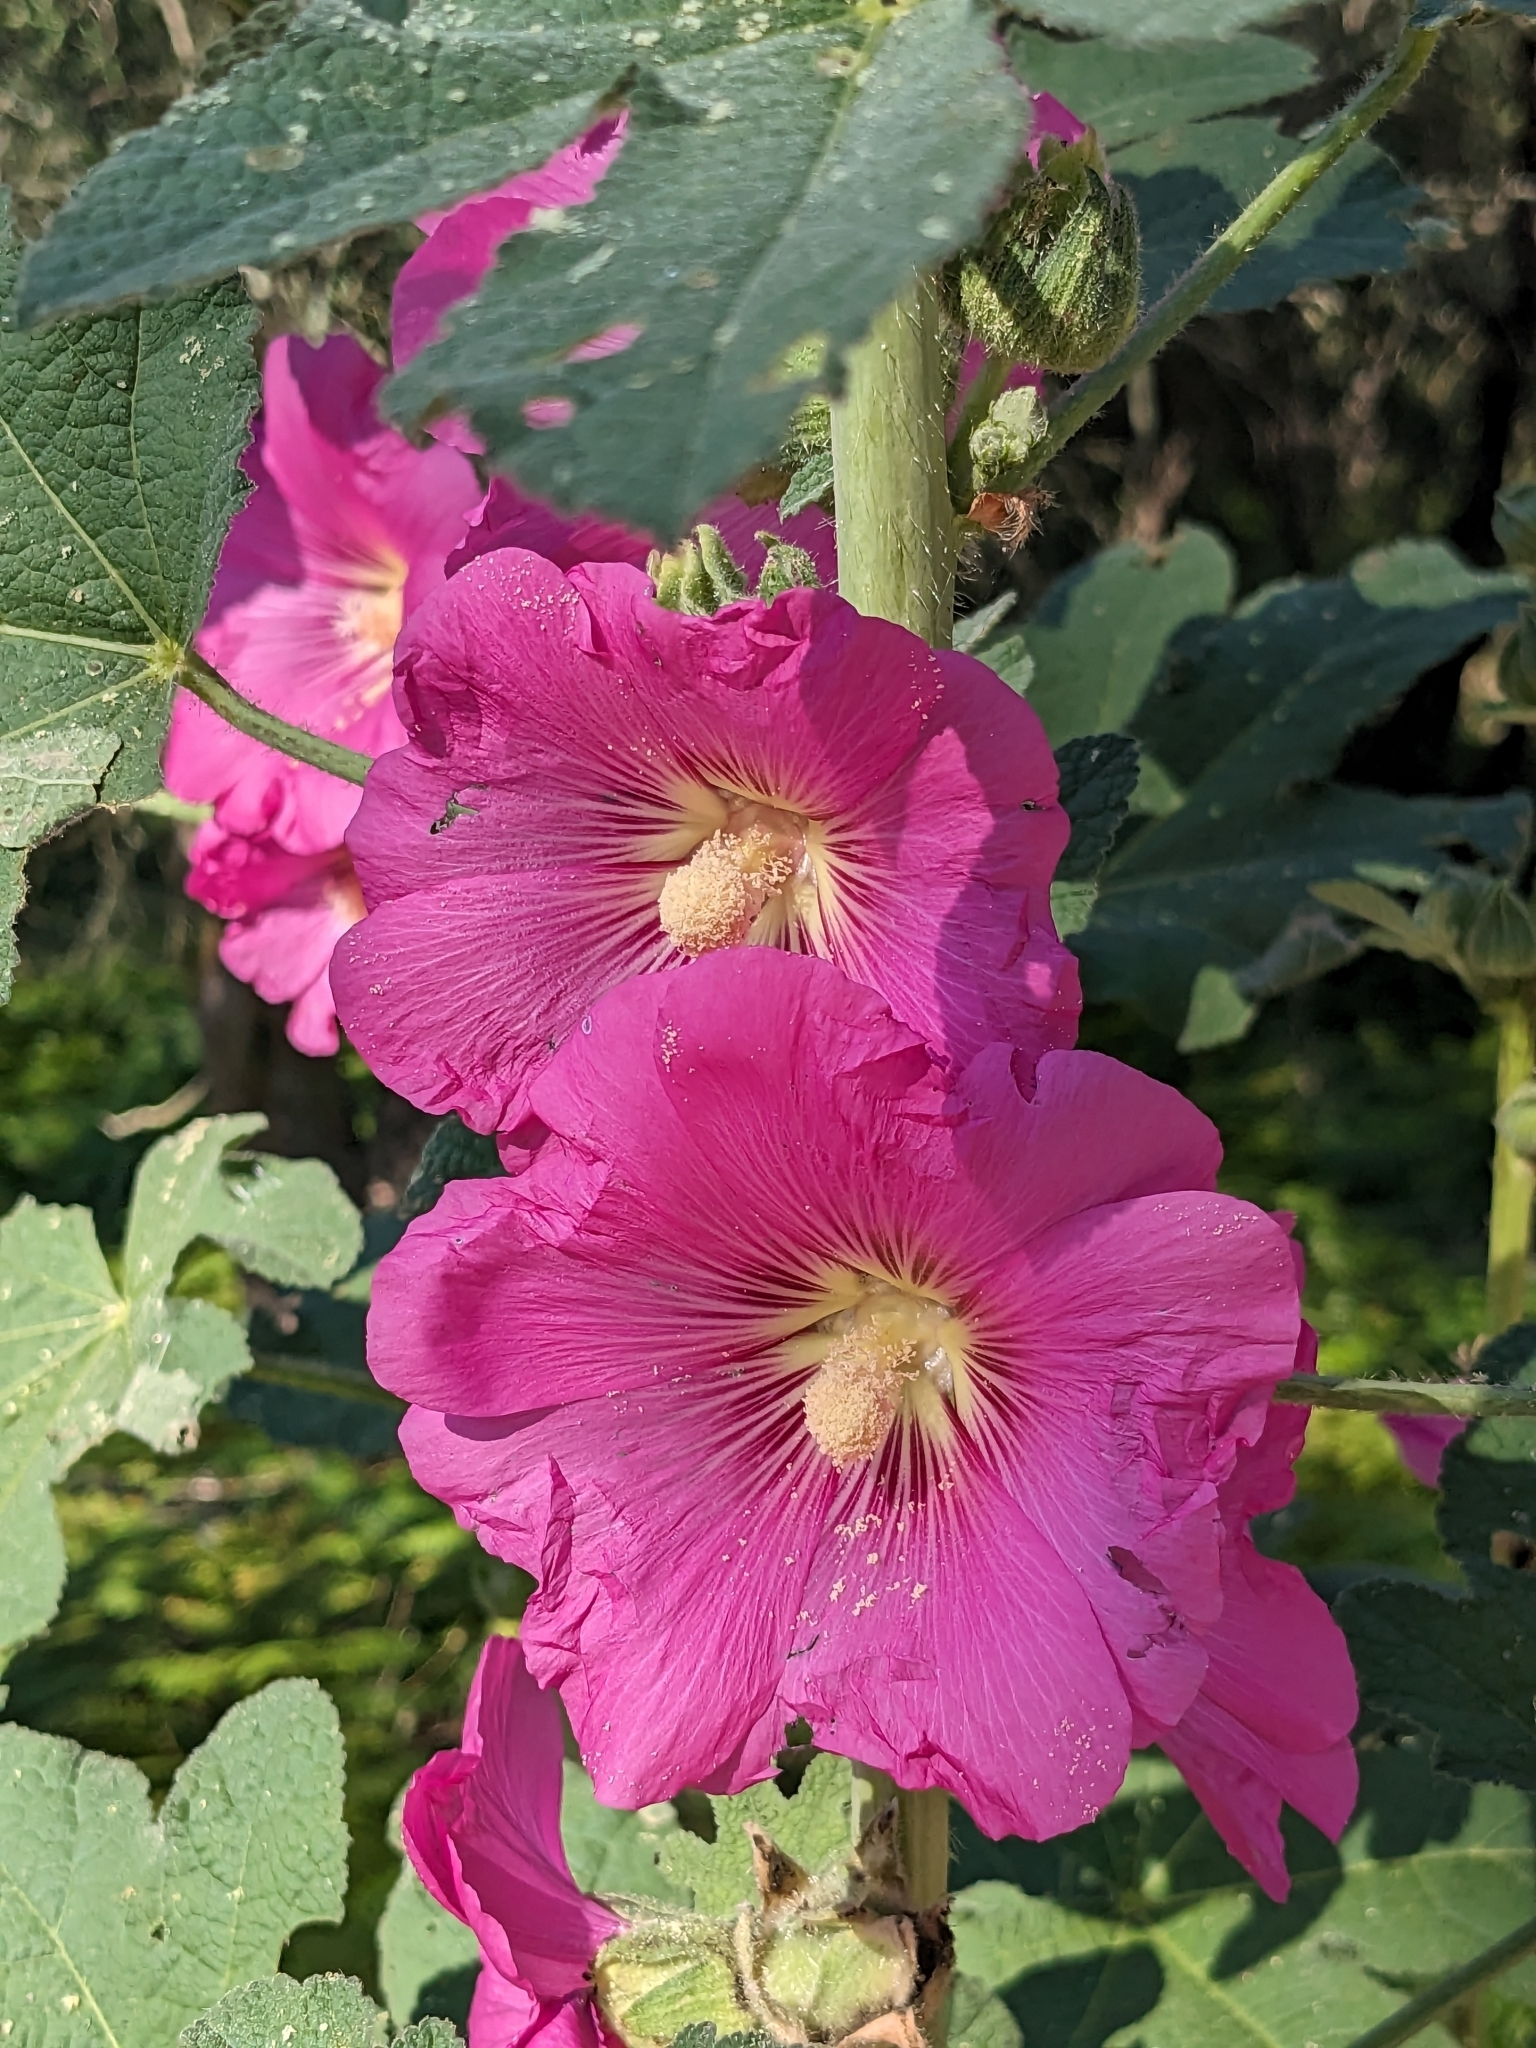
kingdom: Plantae
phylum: Tracheophyta
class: Magnoliopsida
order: Malvales
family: Malvaceae
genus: Alcea
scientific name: Alcea rosea
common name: Hollyhock
